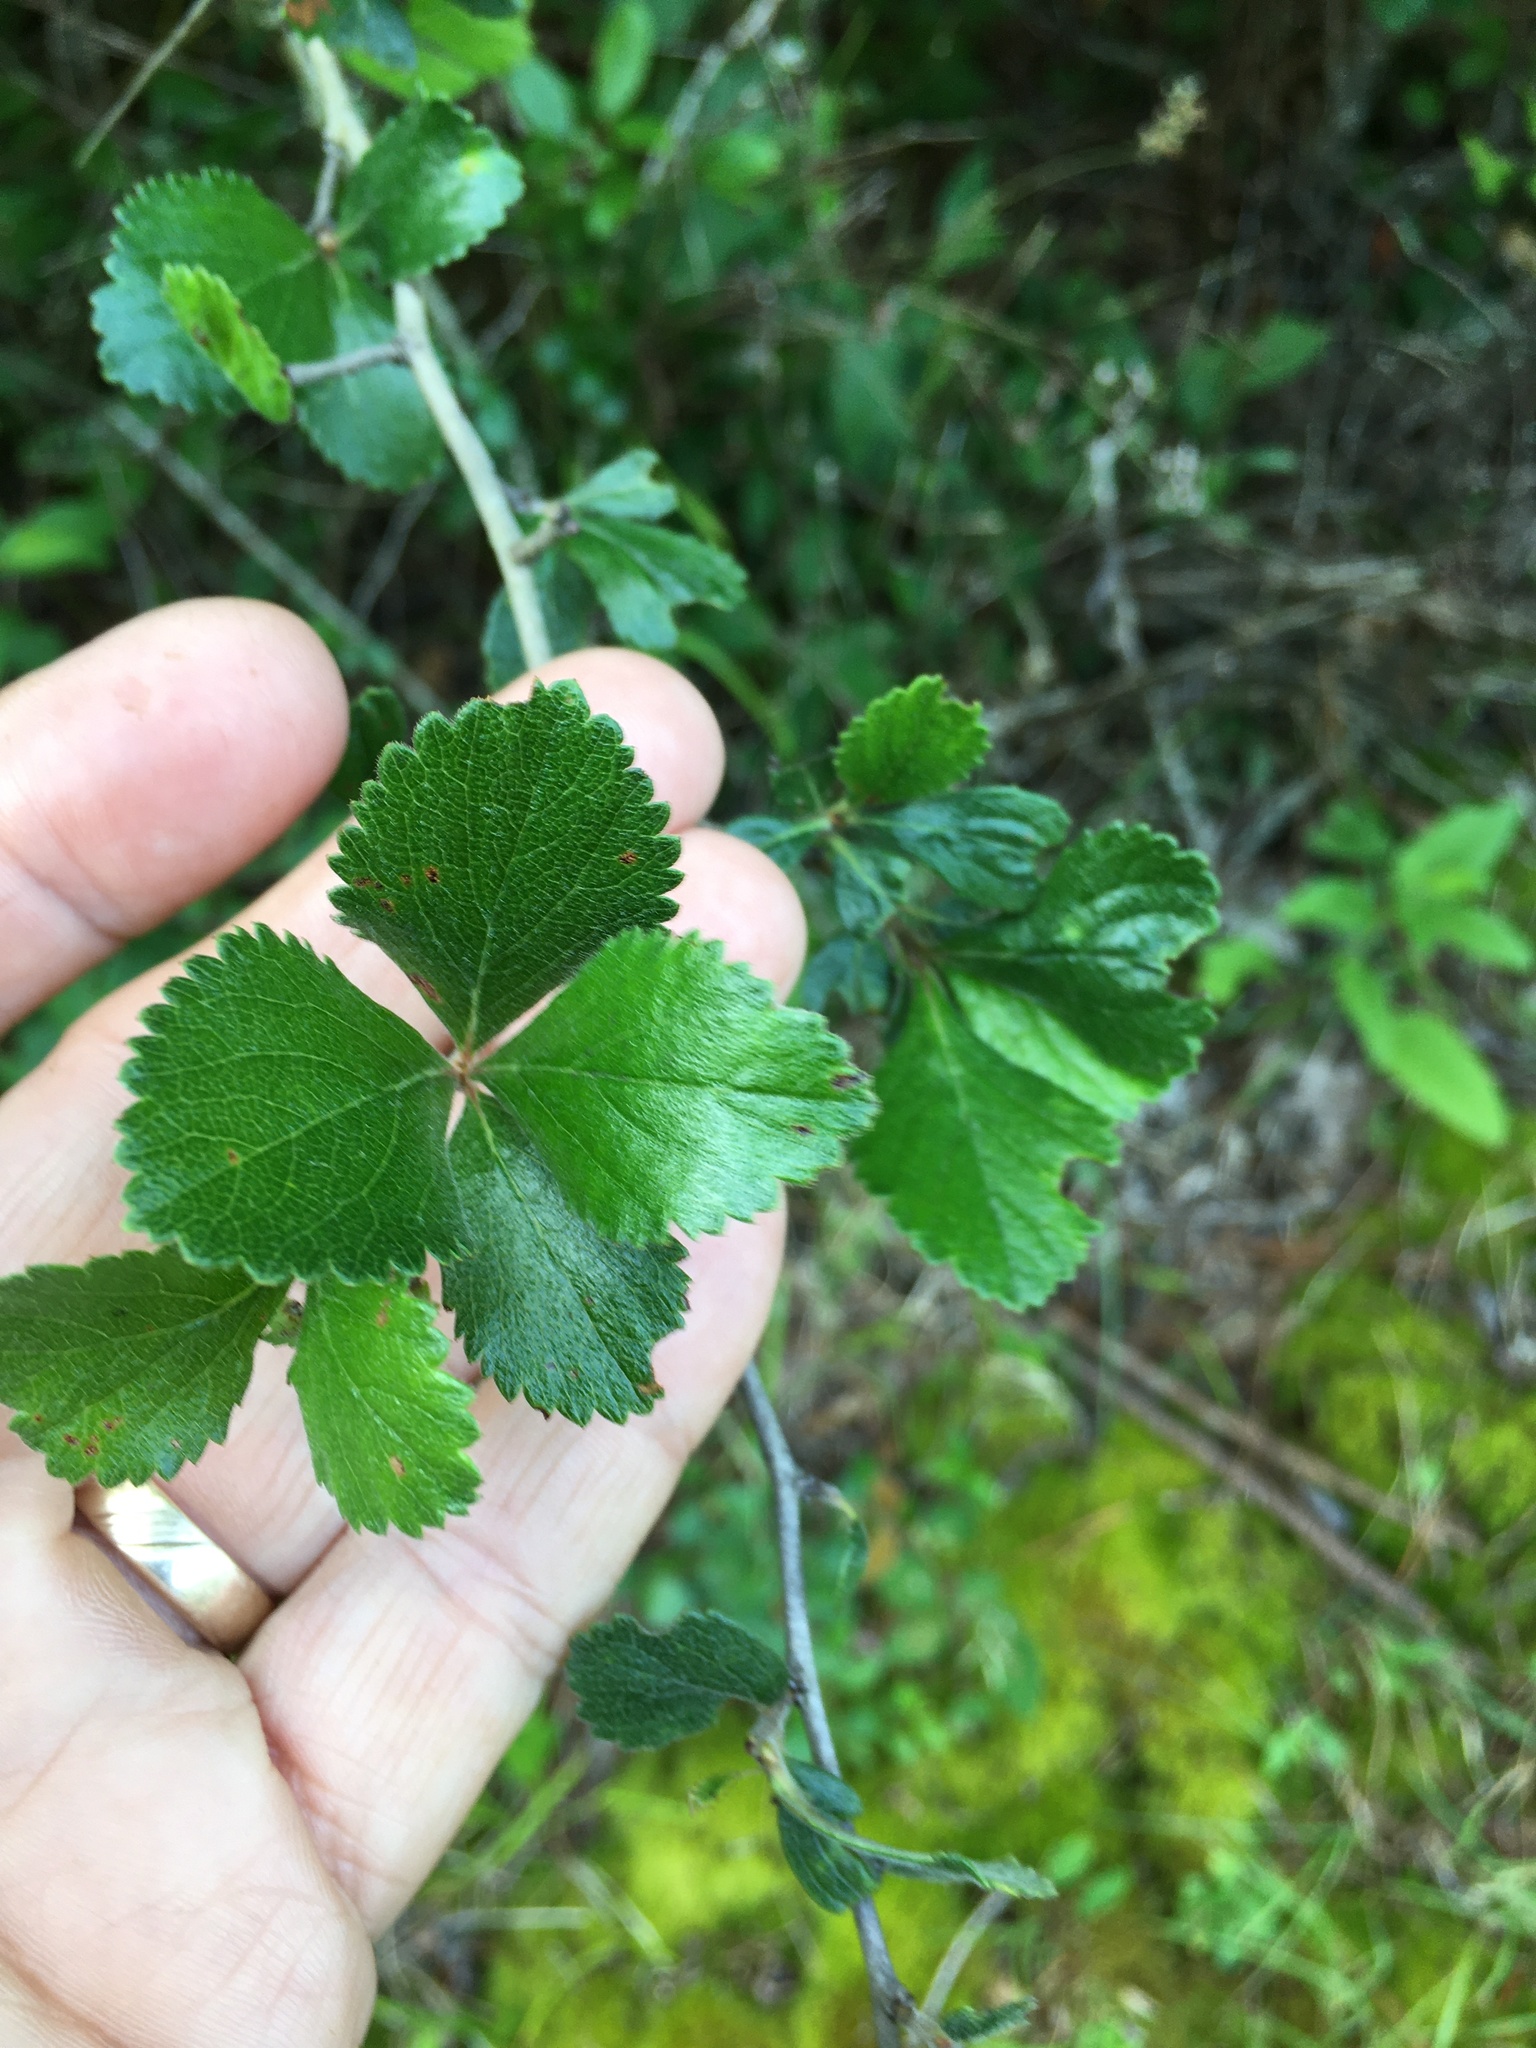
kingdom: Plantae
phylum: Tracheophyta
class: Magnoliopsida
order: Rosales
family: Rosaceae
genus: Crataegus
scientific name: Crataegus crus-galli
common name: Cockspurthorn
